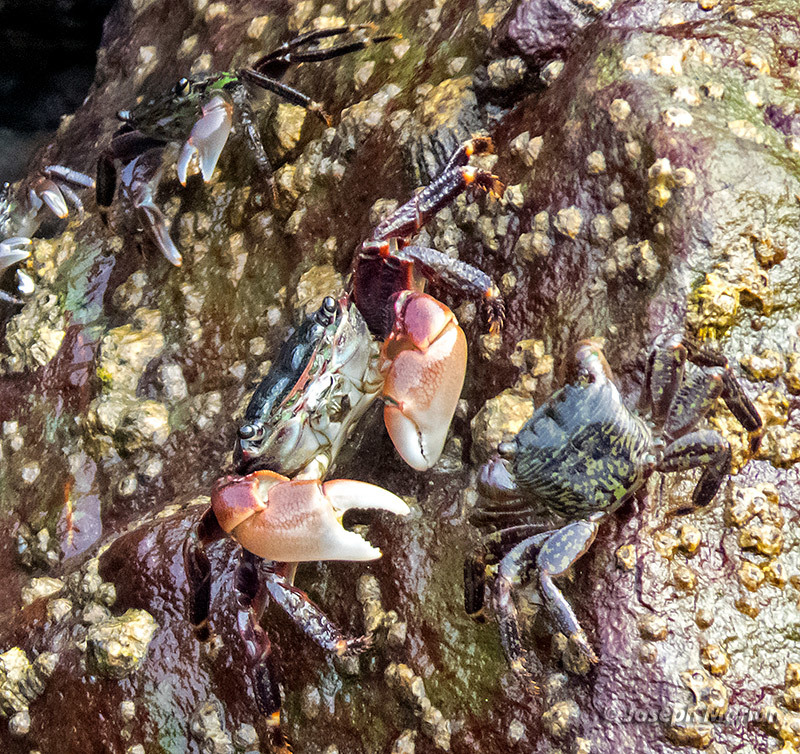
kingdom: Animalia
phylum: Arthropoda
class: Malacostraca
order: Decapoda
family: Grapsidae
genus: Pachygrapsus
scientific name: Pachygrapsus crassipes
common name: Striped shore crab
